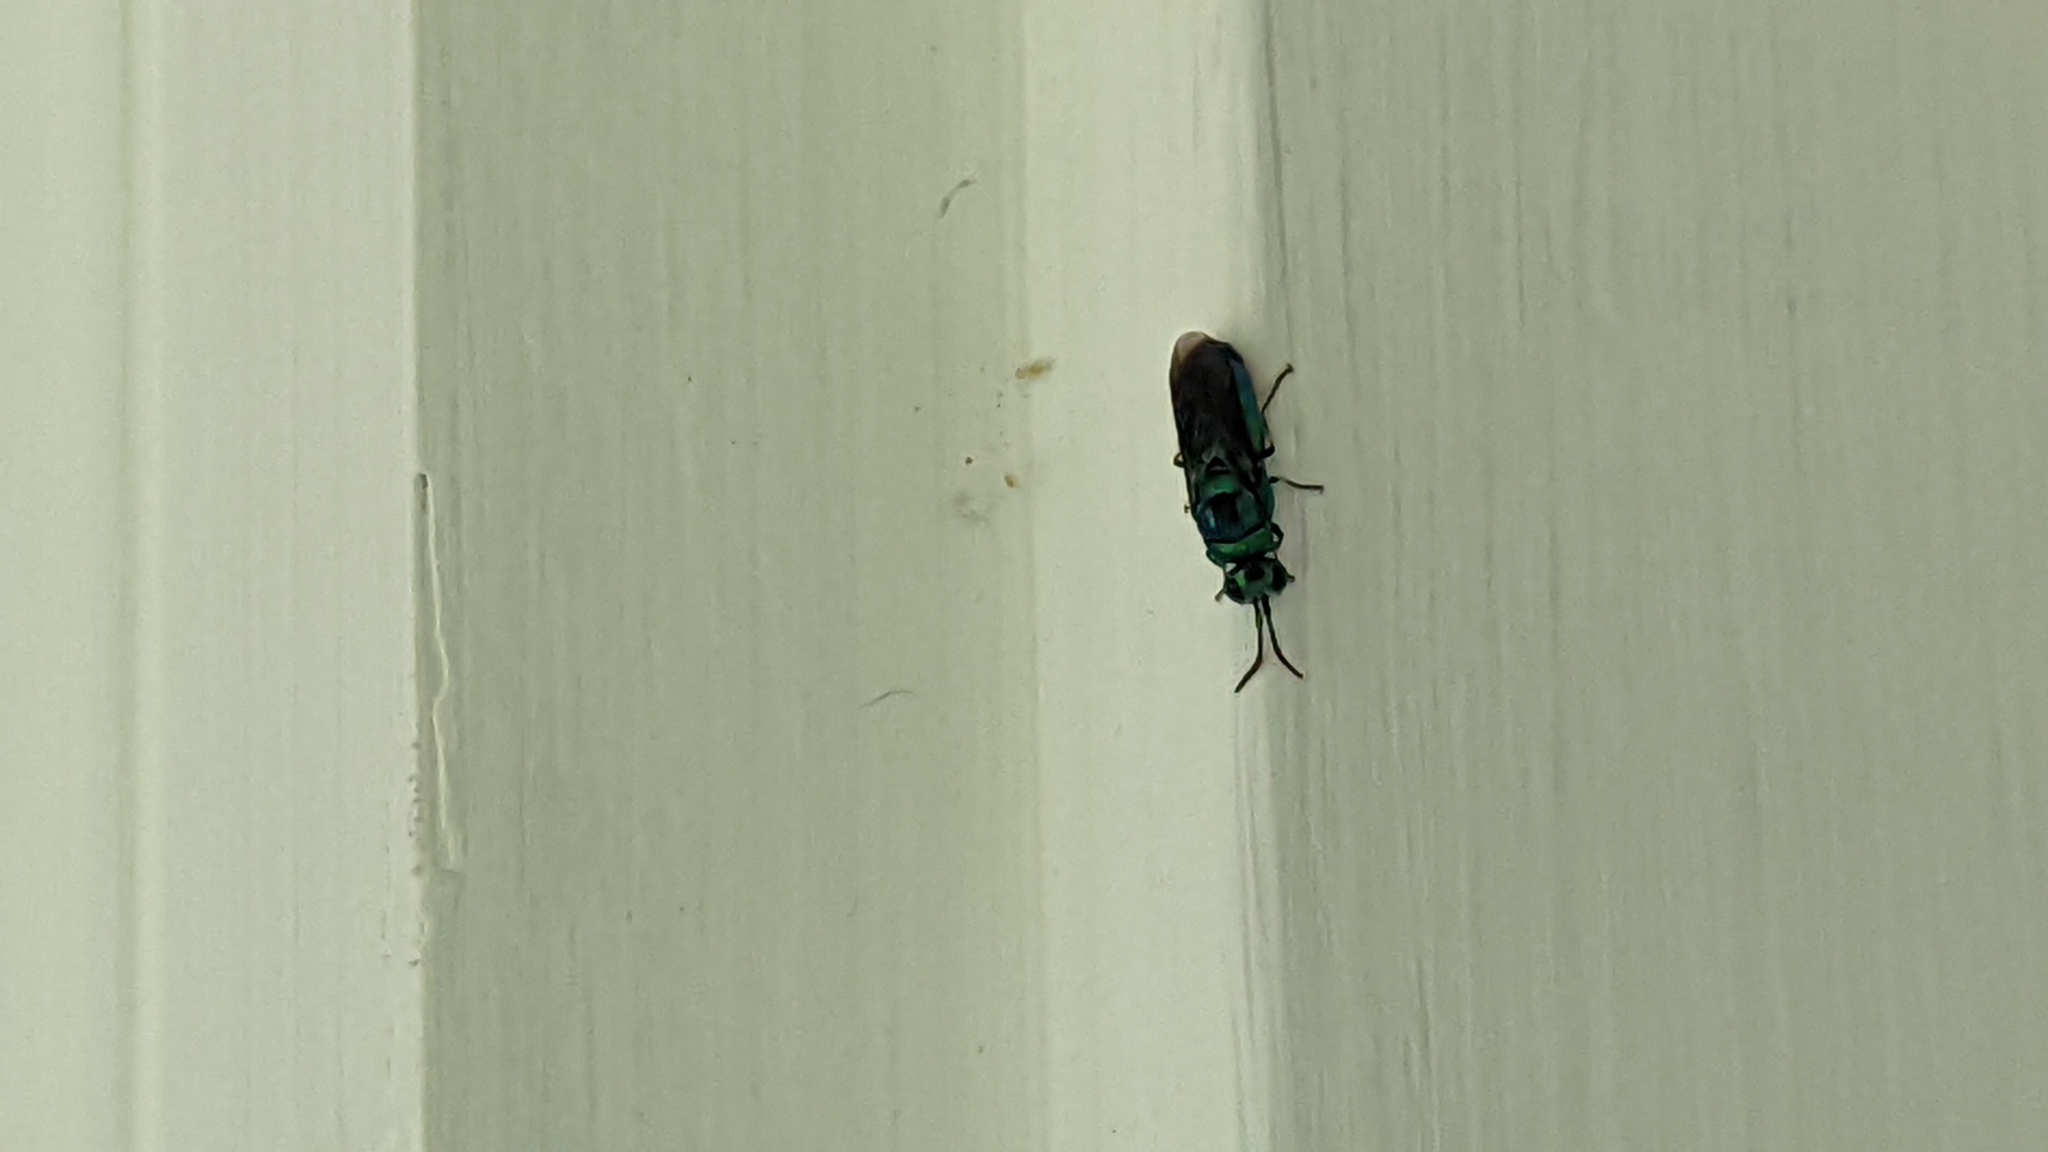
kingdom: Animalia
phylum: Arthropoda
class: Insecta
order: Hymenoptera
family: Chrysididae
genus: Chrysis
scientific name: Chrysis angolensis
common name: Cuckoo wasp
